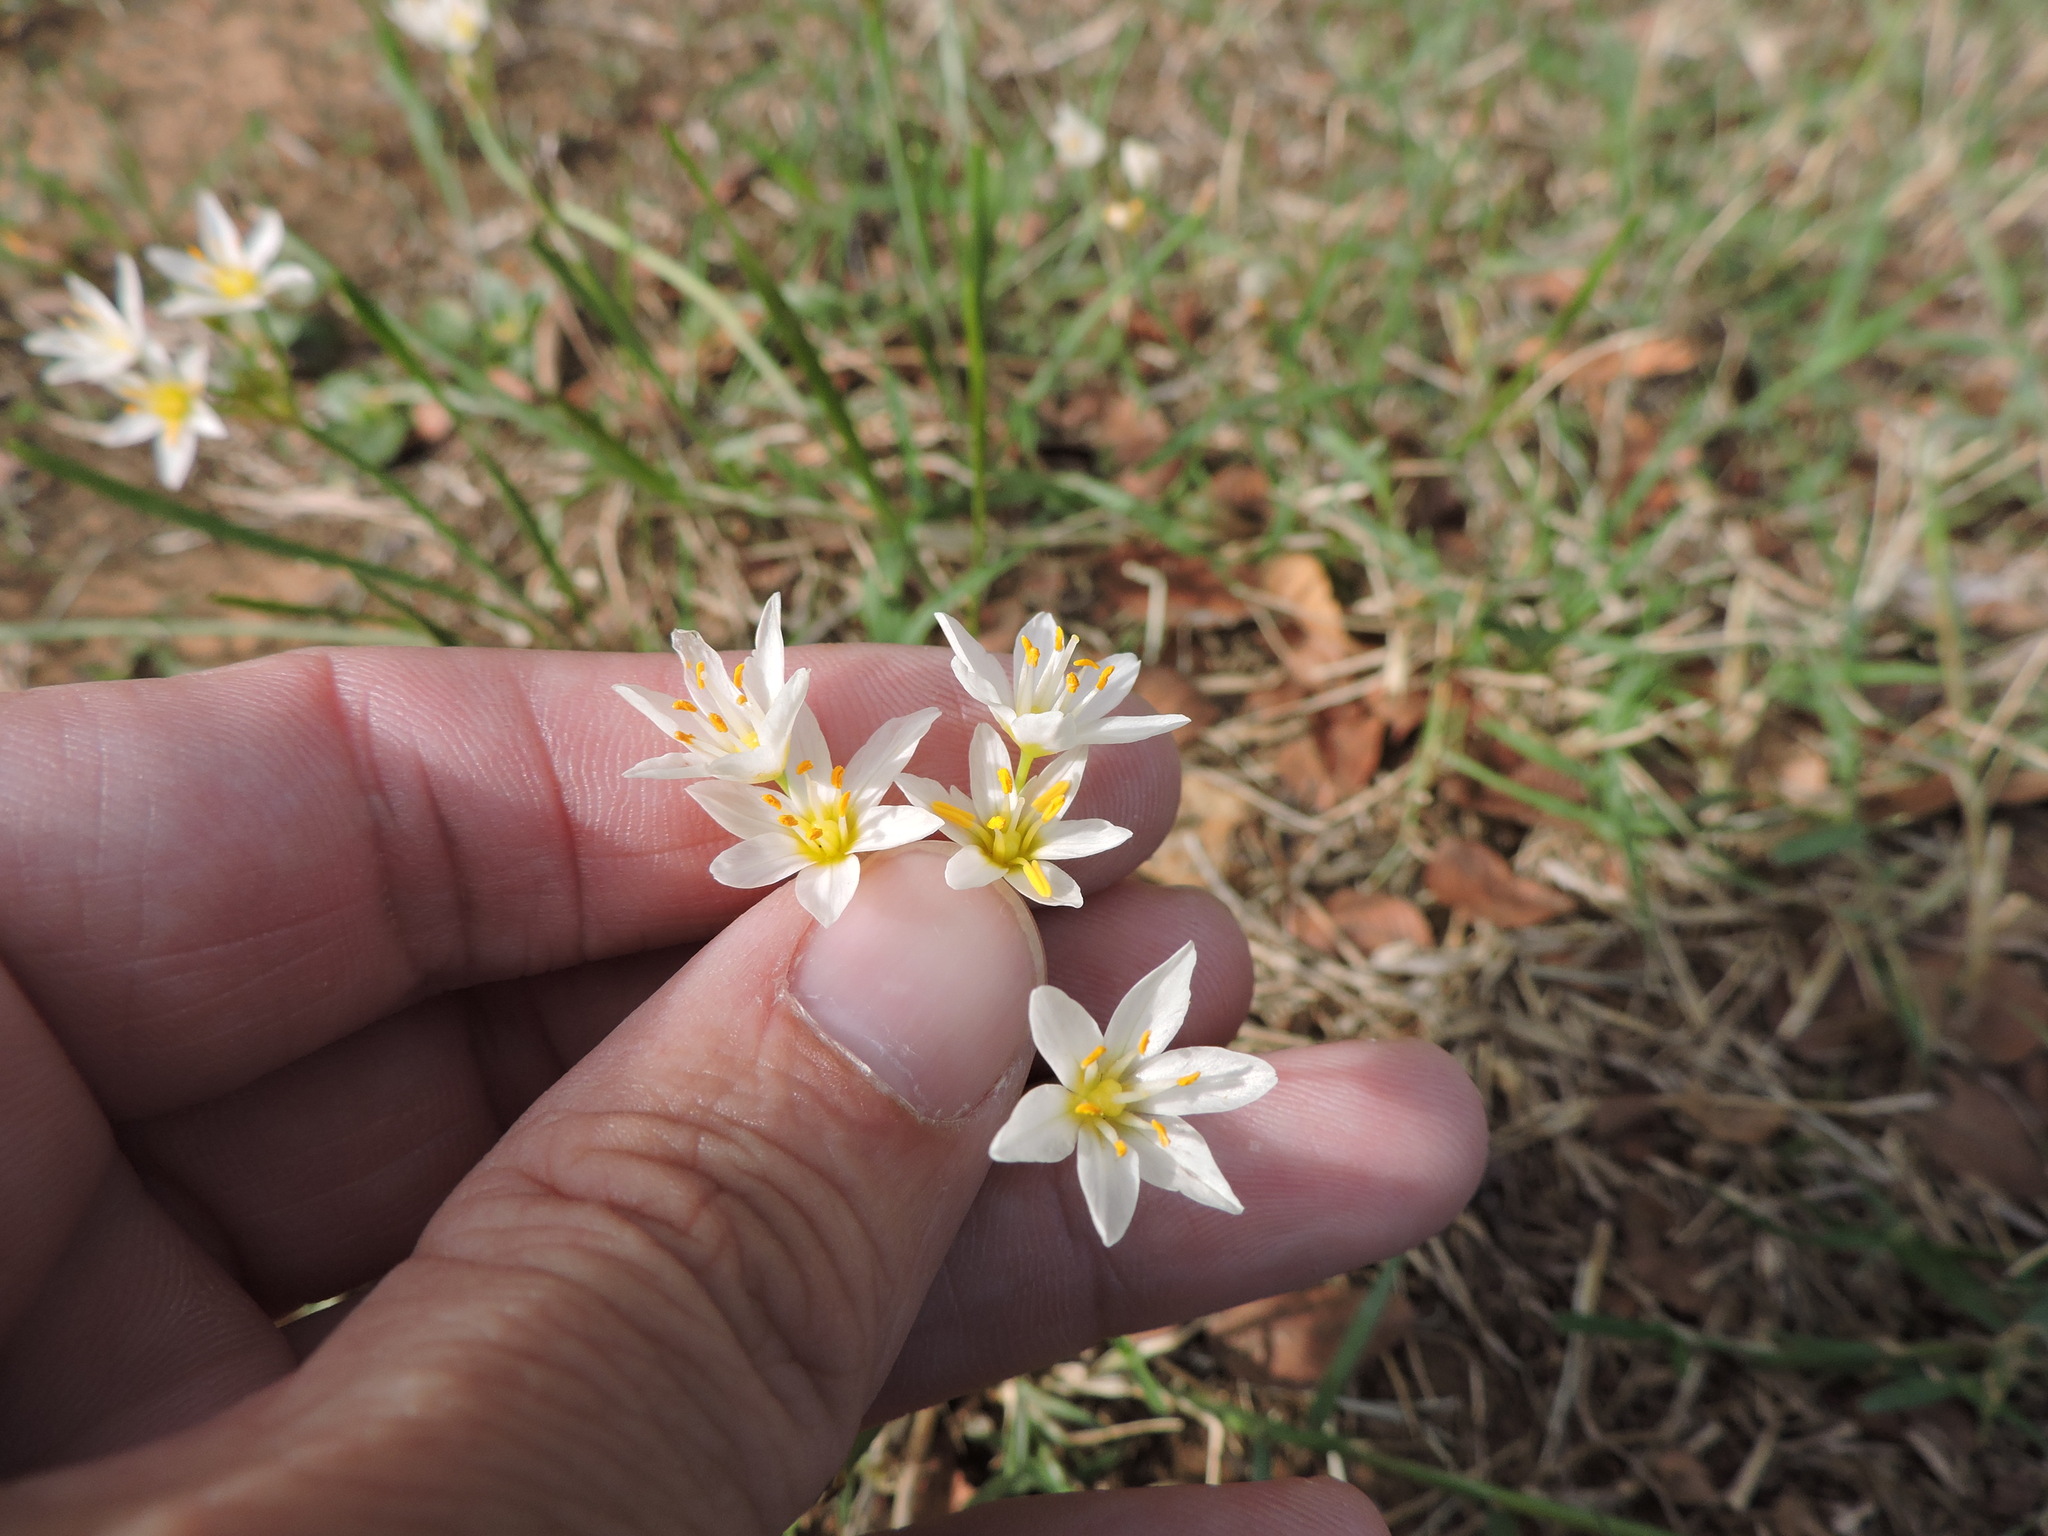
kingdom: Plantae
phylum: Tracheophyta
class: Liliopsida
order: Asparagales
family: Amaryllidaceae
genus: Nothoscordum
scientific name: Nothoscordum bivalve
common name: Crow-poison
